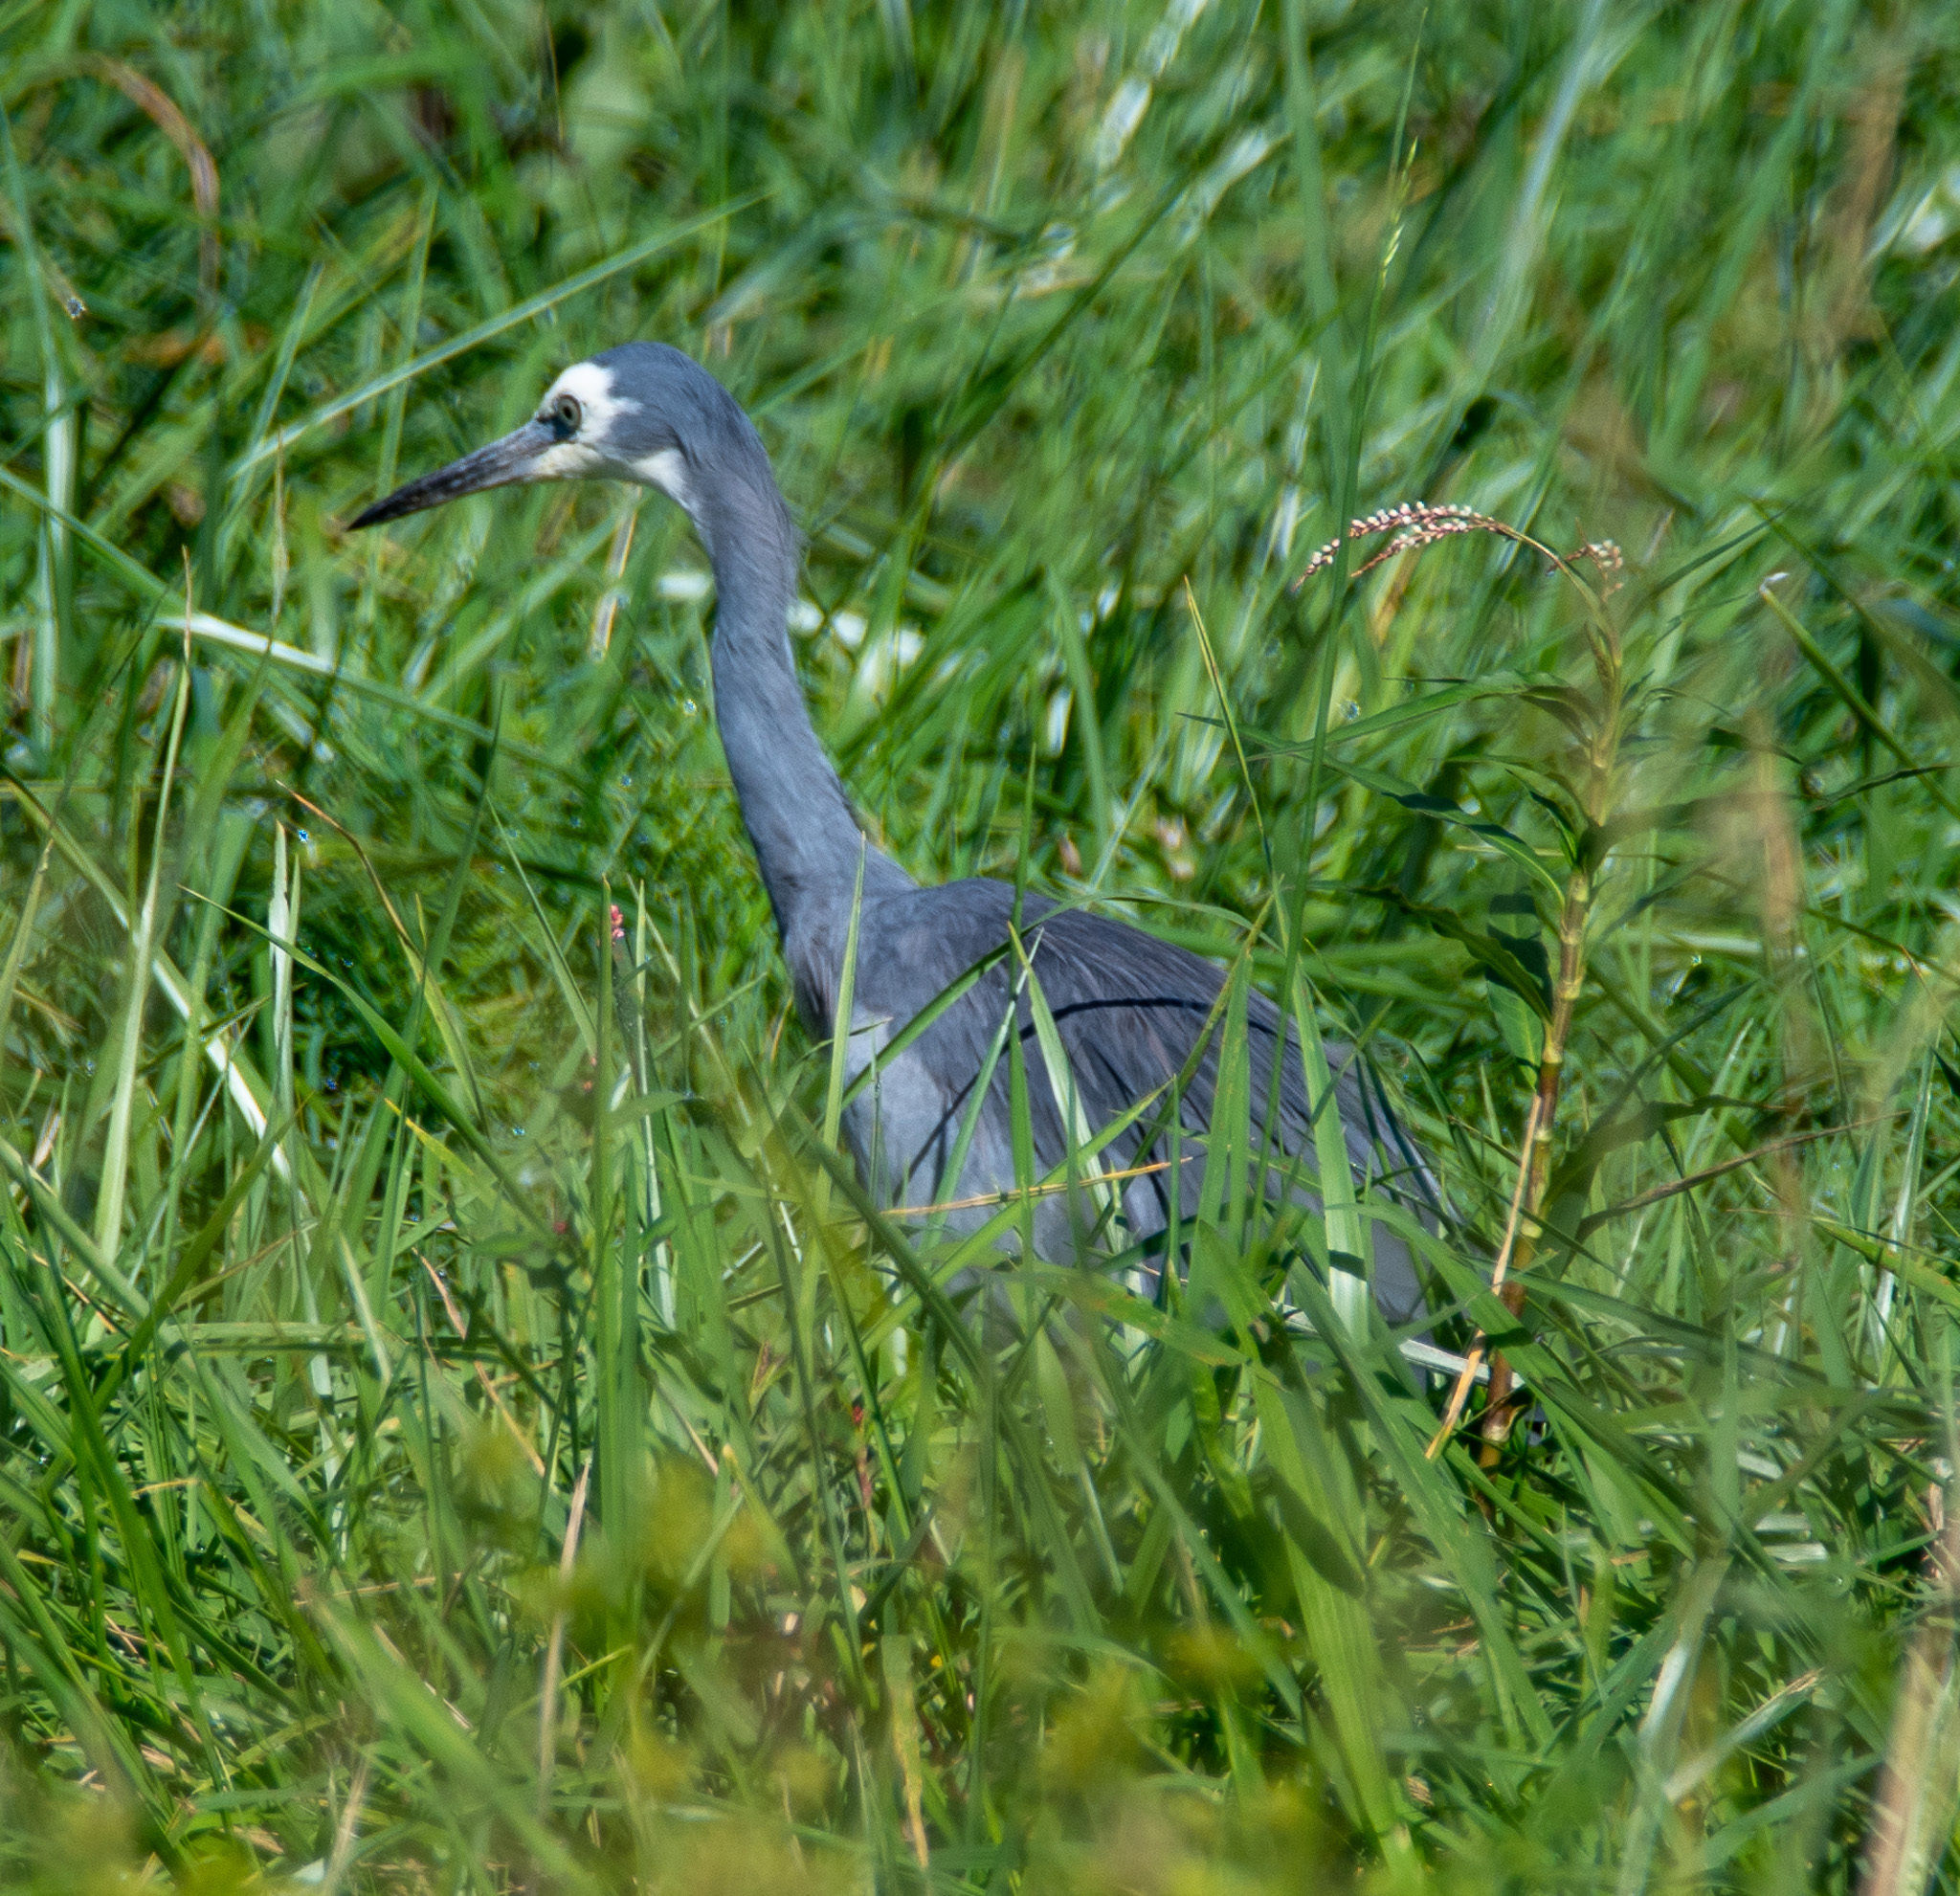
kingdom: Animalia
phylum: Chordata
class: Aves
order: Pelecaniformes
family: Ardeidae
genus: Egretta
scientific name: Egretta novaehollandiae
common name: White-faced heron
